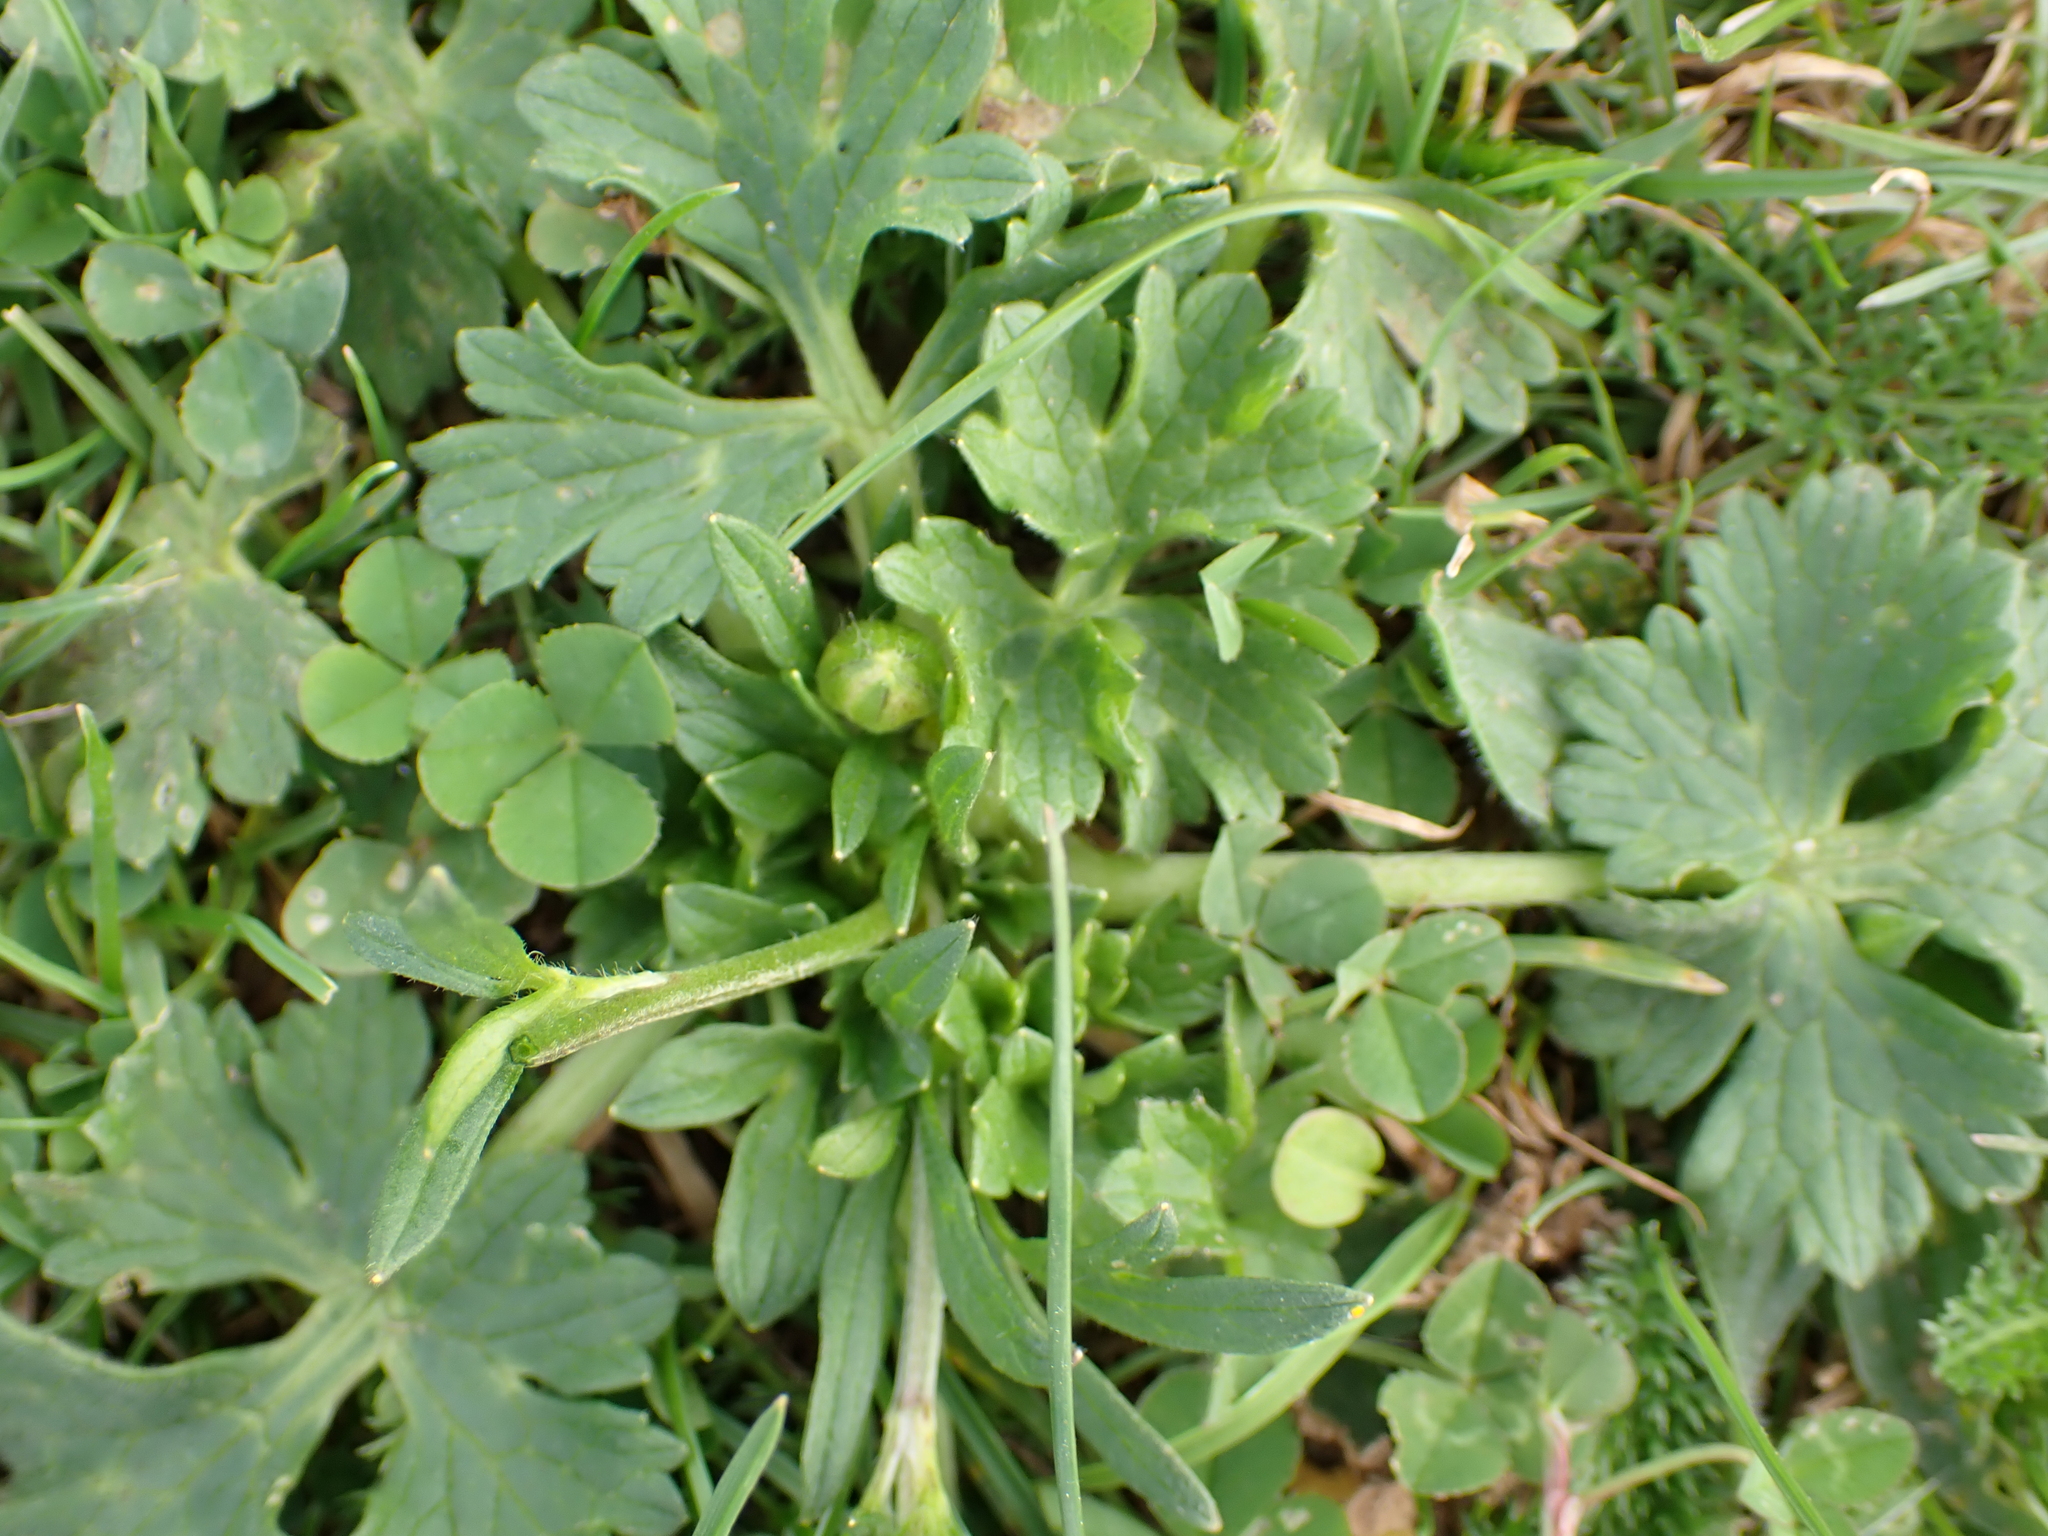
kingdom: Plantae
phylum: Tracheophyta
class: Magnoliopsida
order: Ranunculales
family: Ranunculaceae
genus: Ranunculus
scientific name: Ranunculus sardous
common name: Hairy buttercup
